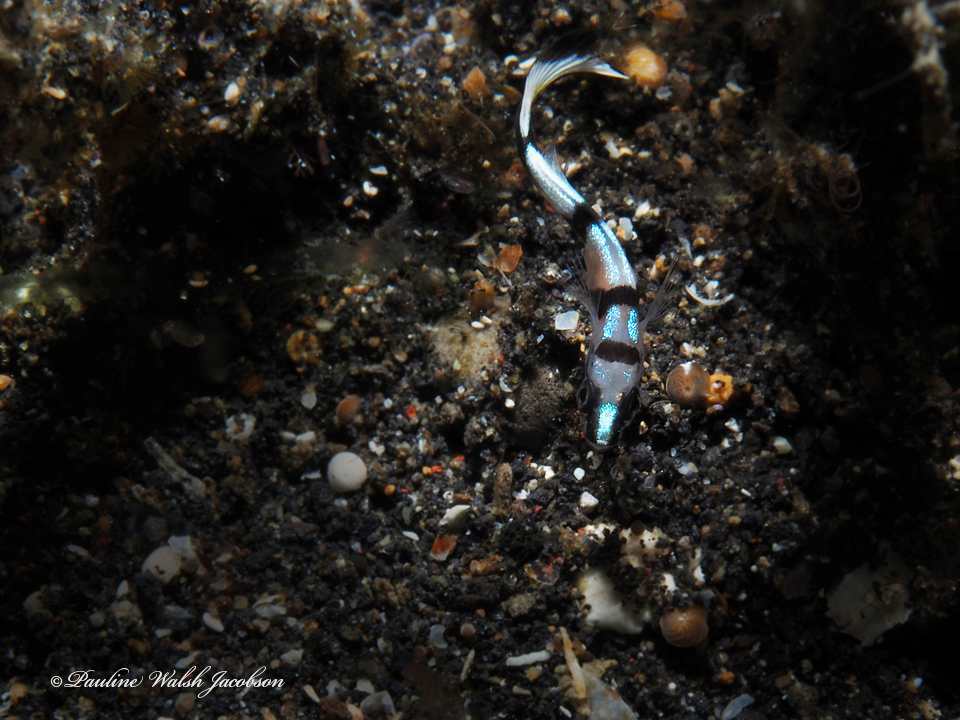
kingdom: Animalia
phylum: Chordata
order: Perciformes
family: Haemulidae
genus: Diagramma
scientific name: Diagramma pictum
